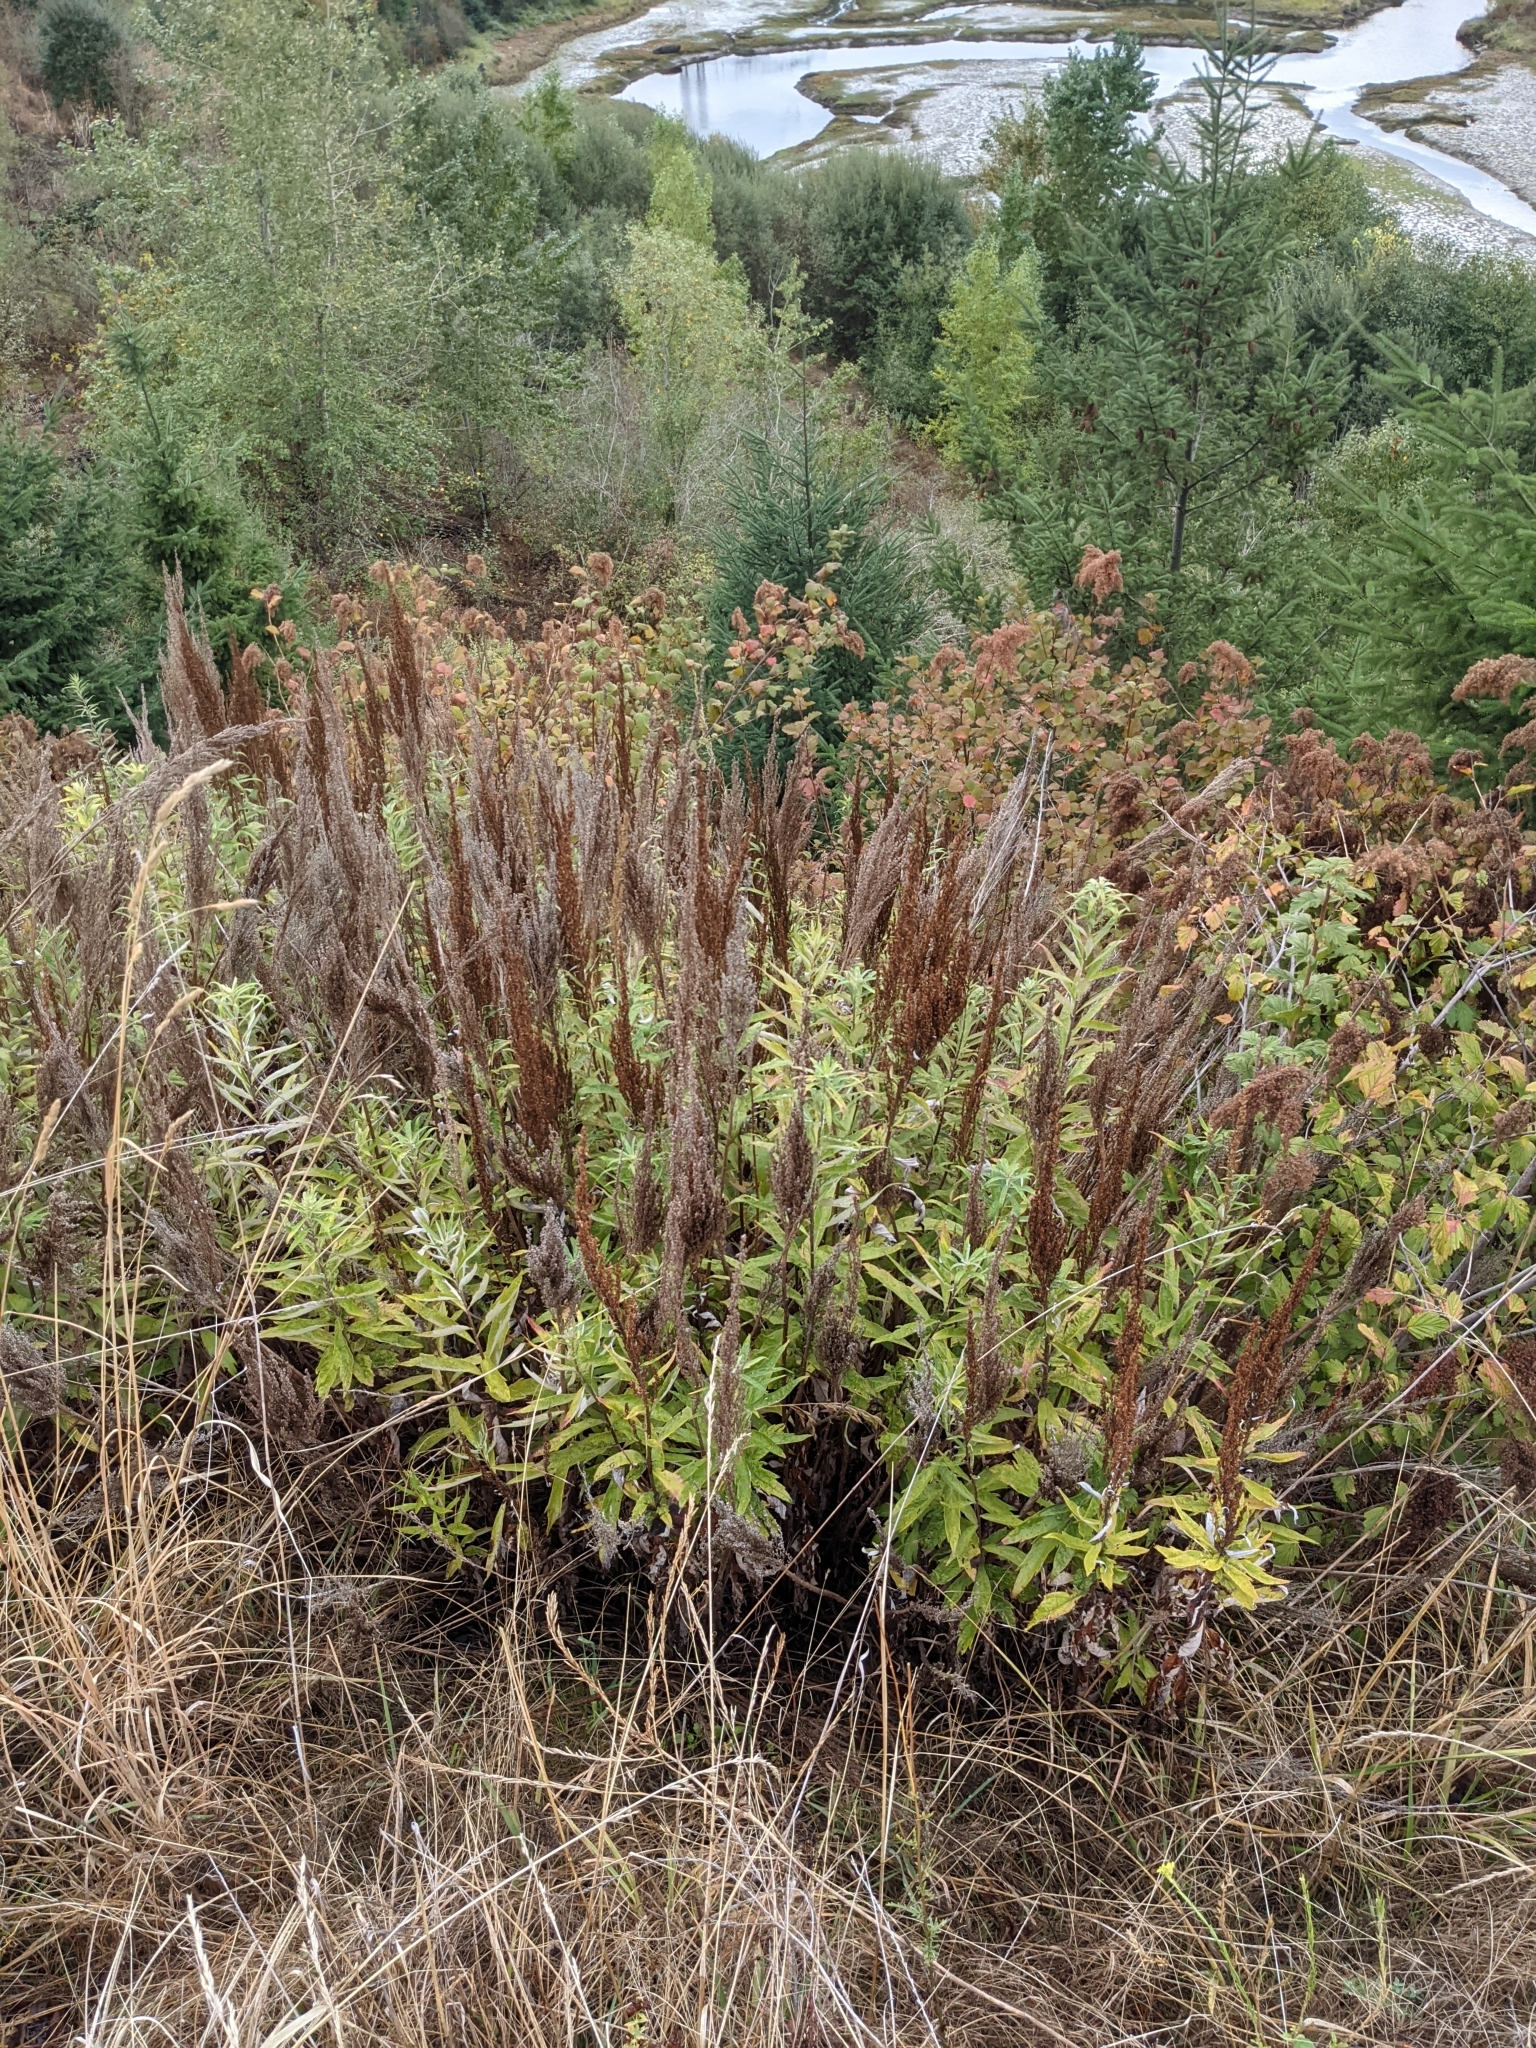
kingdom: Plantae
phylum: Tracheophyta
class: Magnoliopsida
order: Asterales
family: Asteraceae
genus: Artemisia
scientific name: Artemisia suksdorfii
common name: Suksdorf sagewort
